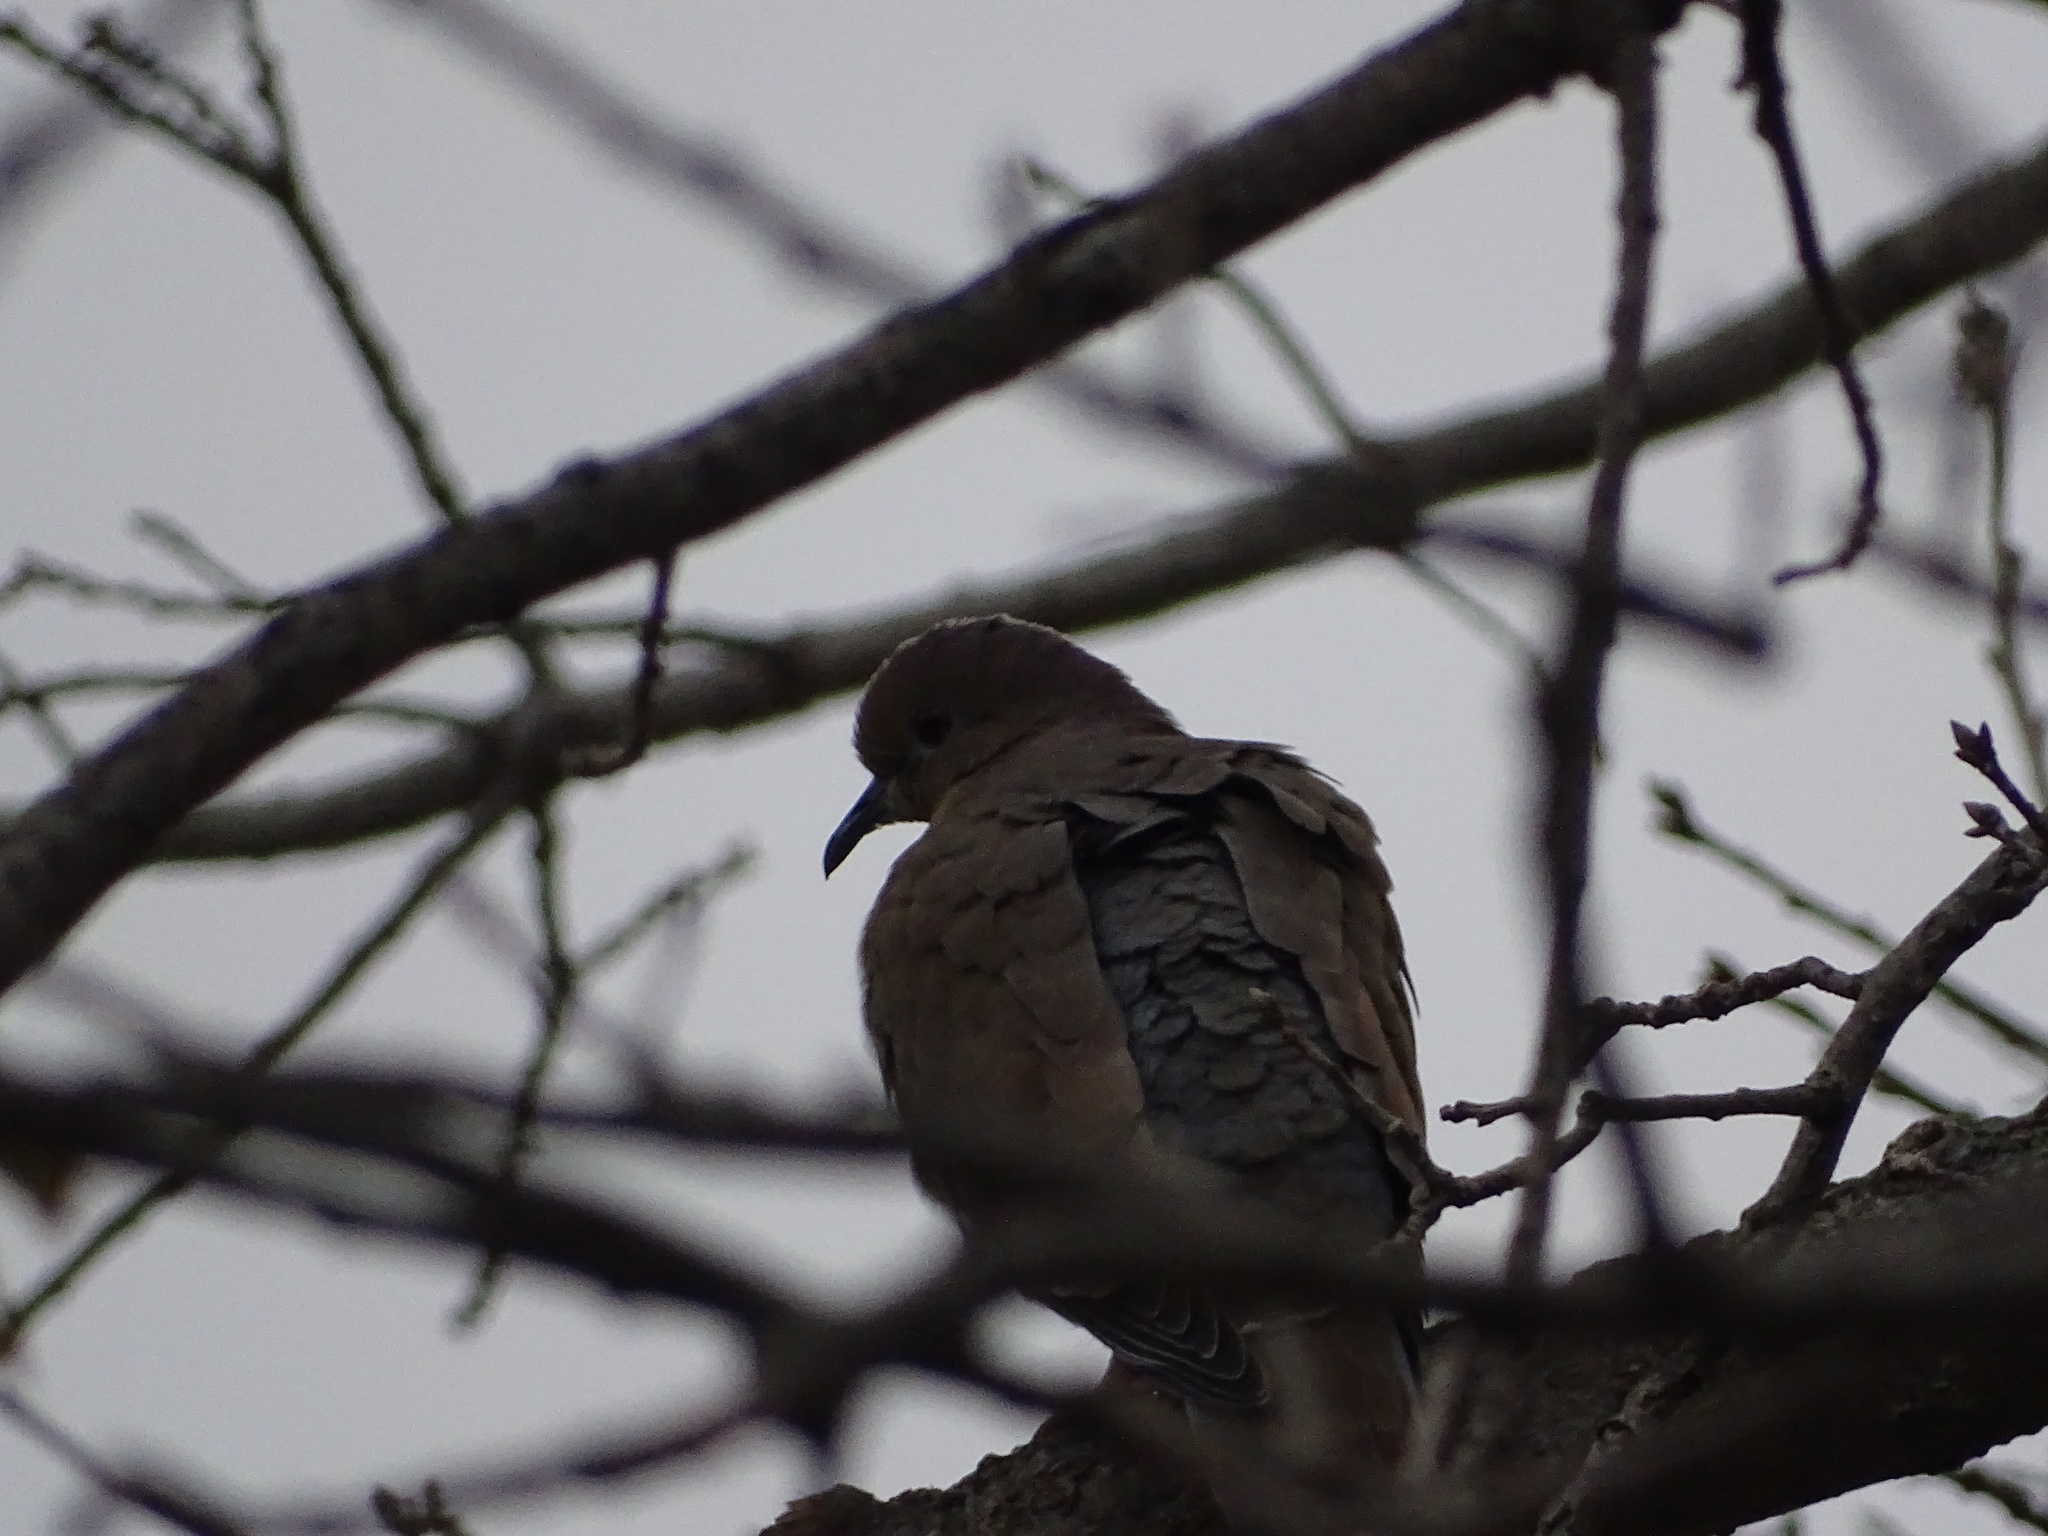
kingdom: Animalia
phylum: Chordata
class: Aves
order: Columbiformes
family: Columbidae
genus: Zenaida
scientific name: Zenaida asiatica
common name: White-winged dove
